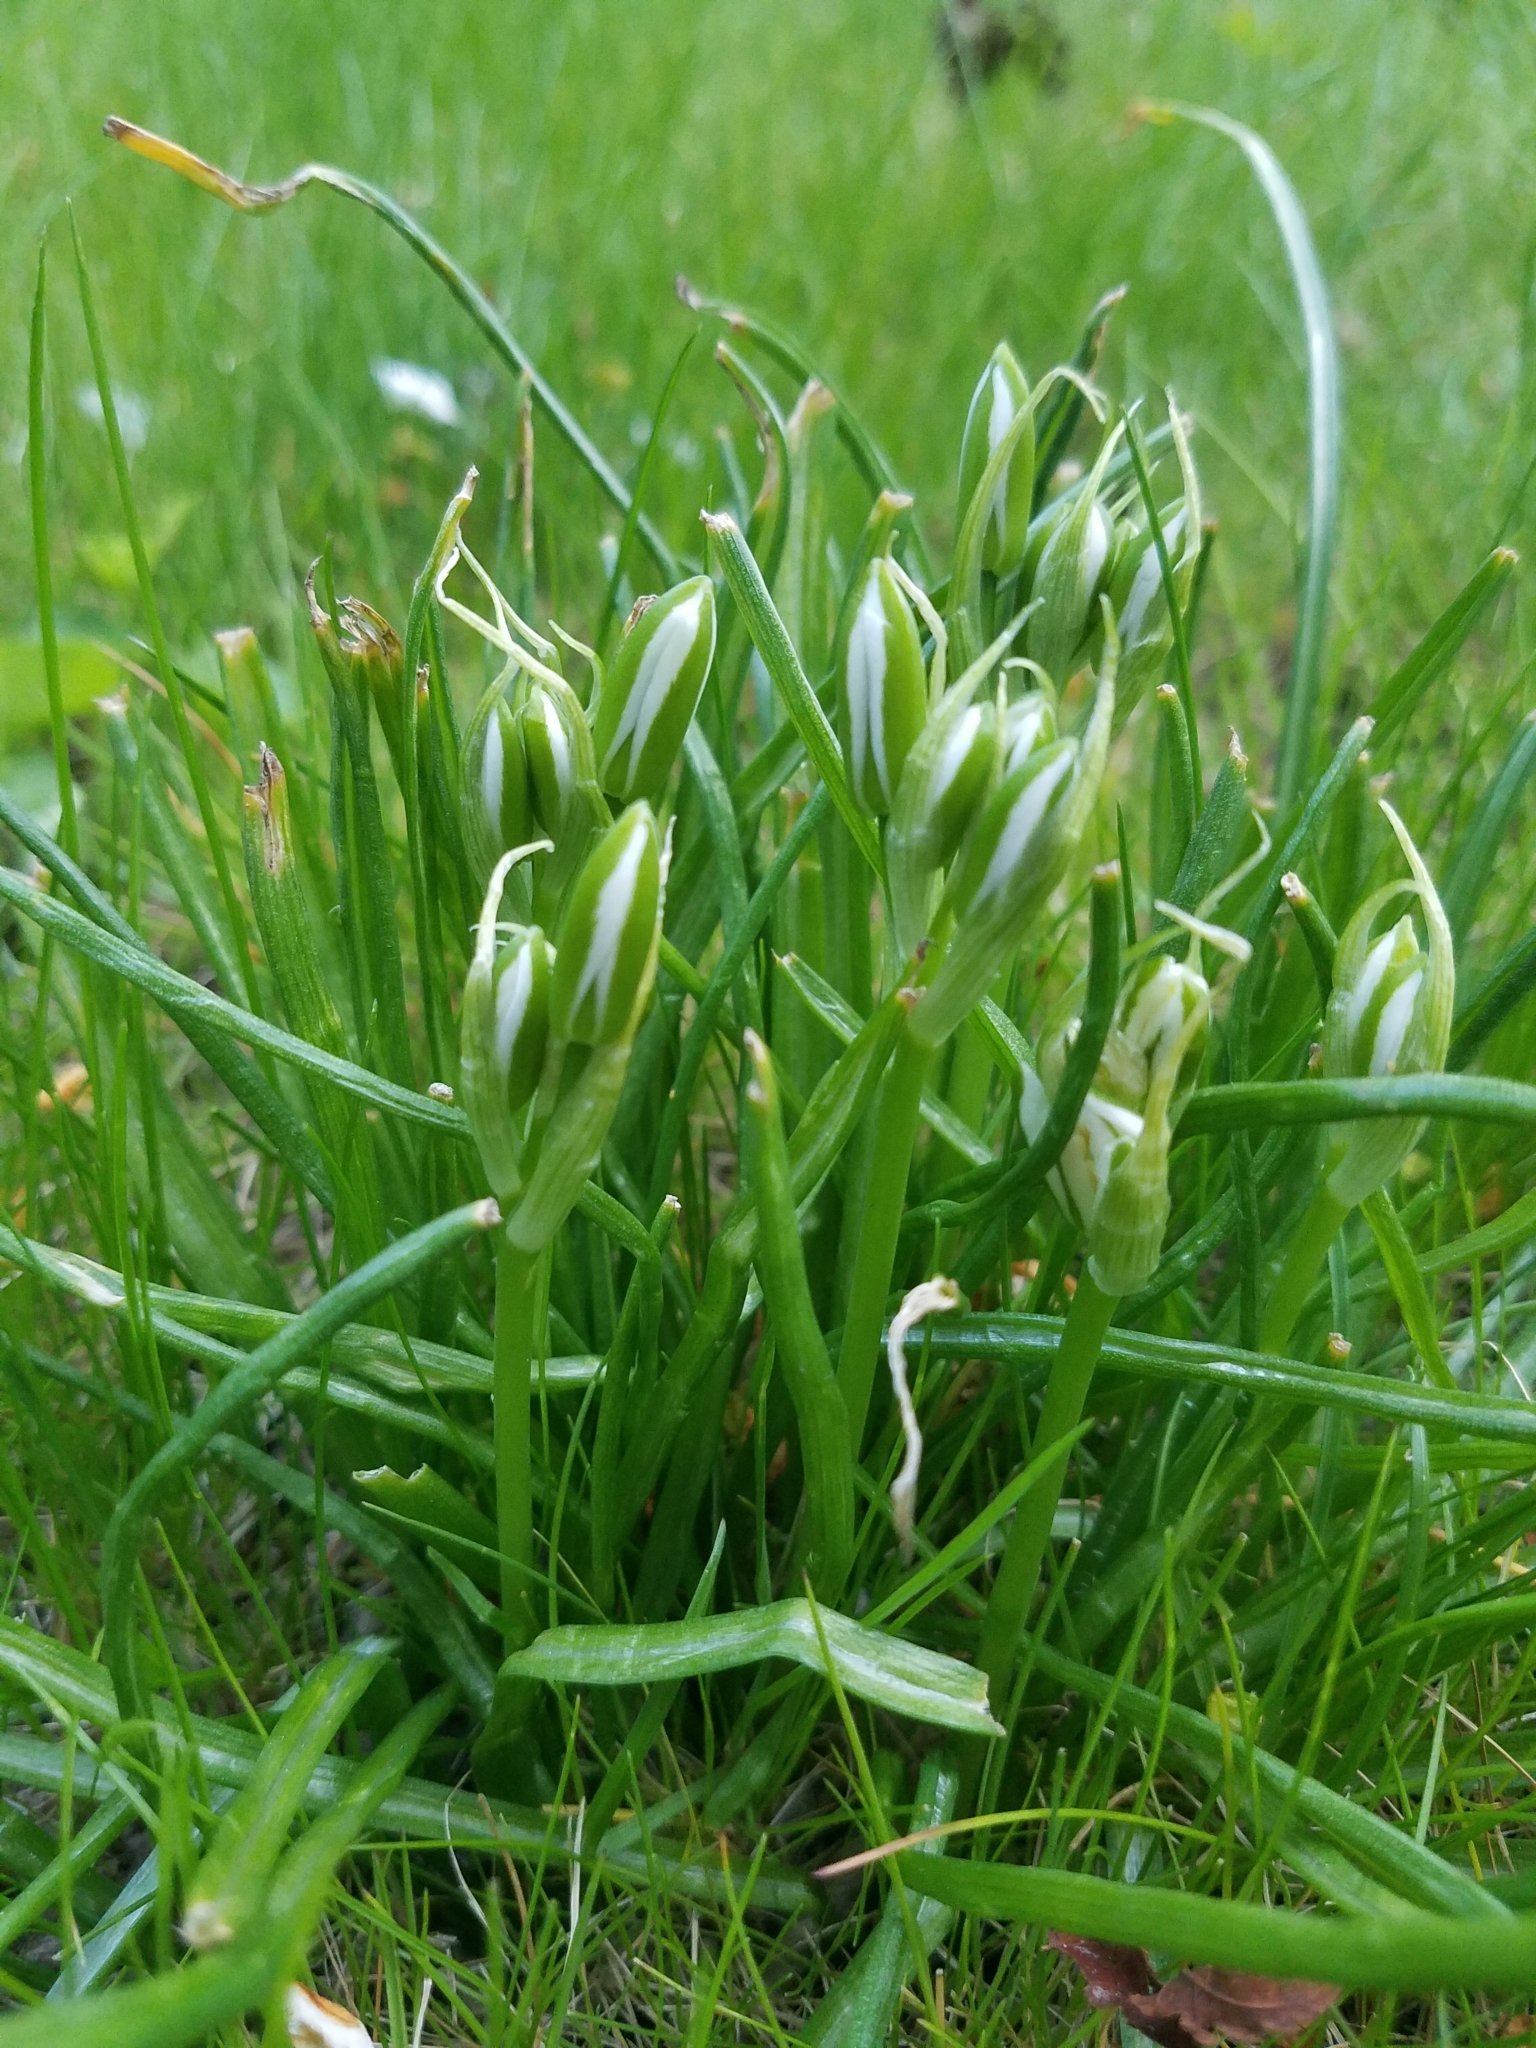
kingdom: Plantae
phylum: Tracheophyta
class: Liliopsida
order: Asparagales
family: Asparagaceae
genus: Ornithogalum
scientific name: Ornithogalum umbellatum
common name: Garden star-of-bethlehem
